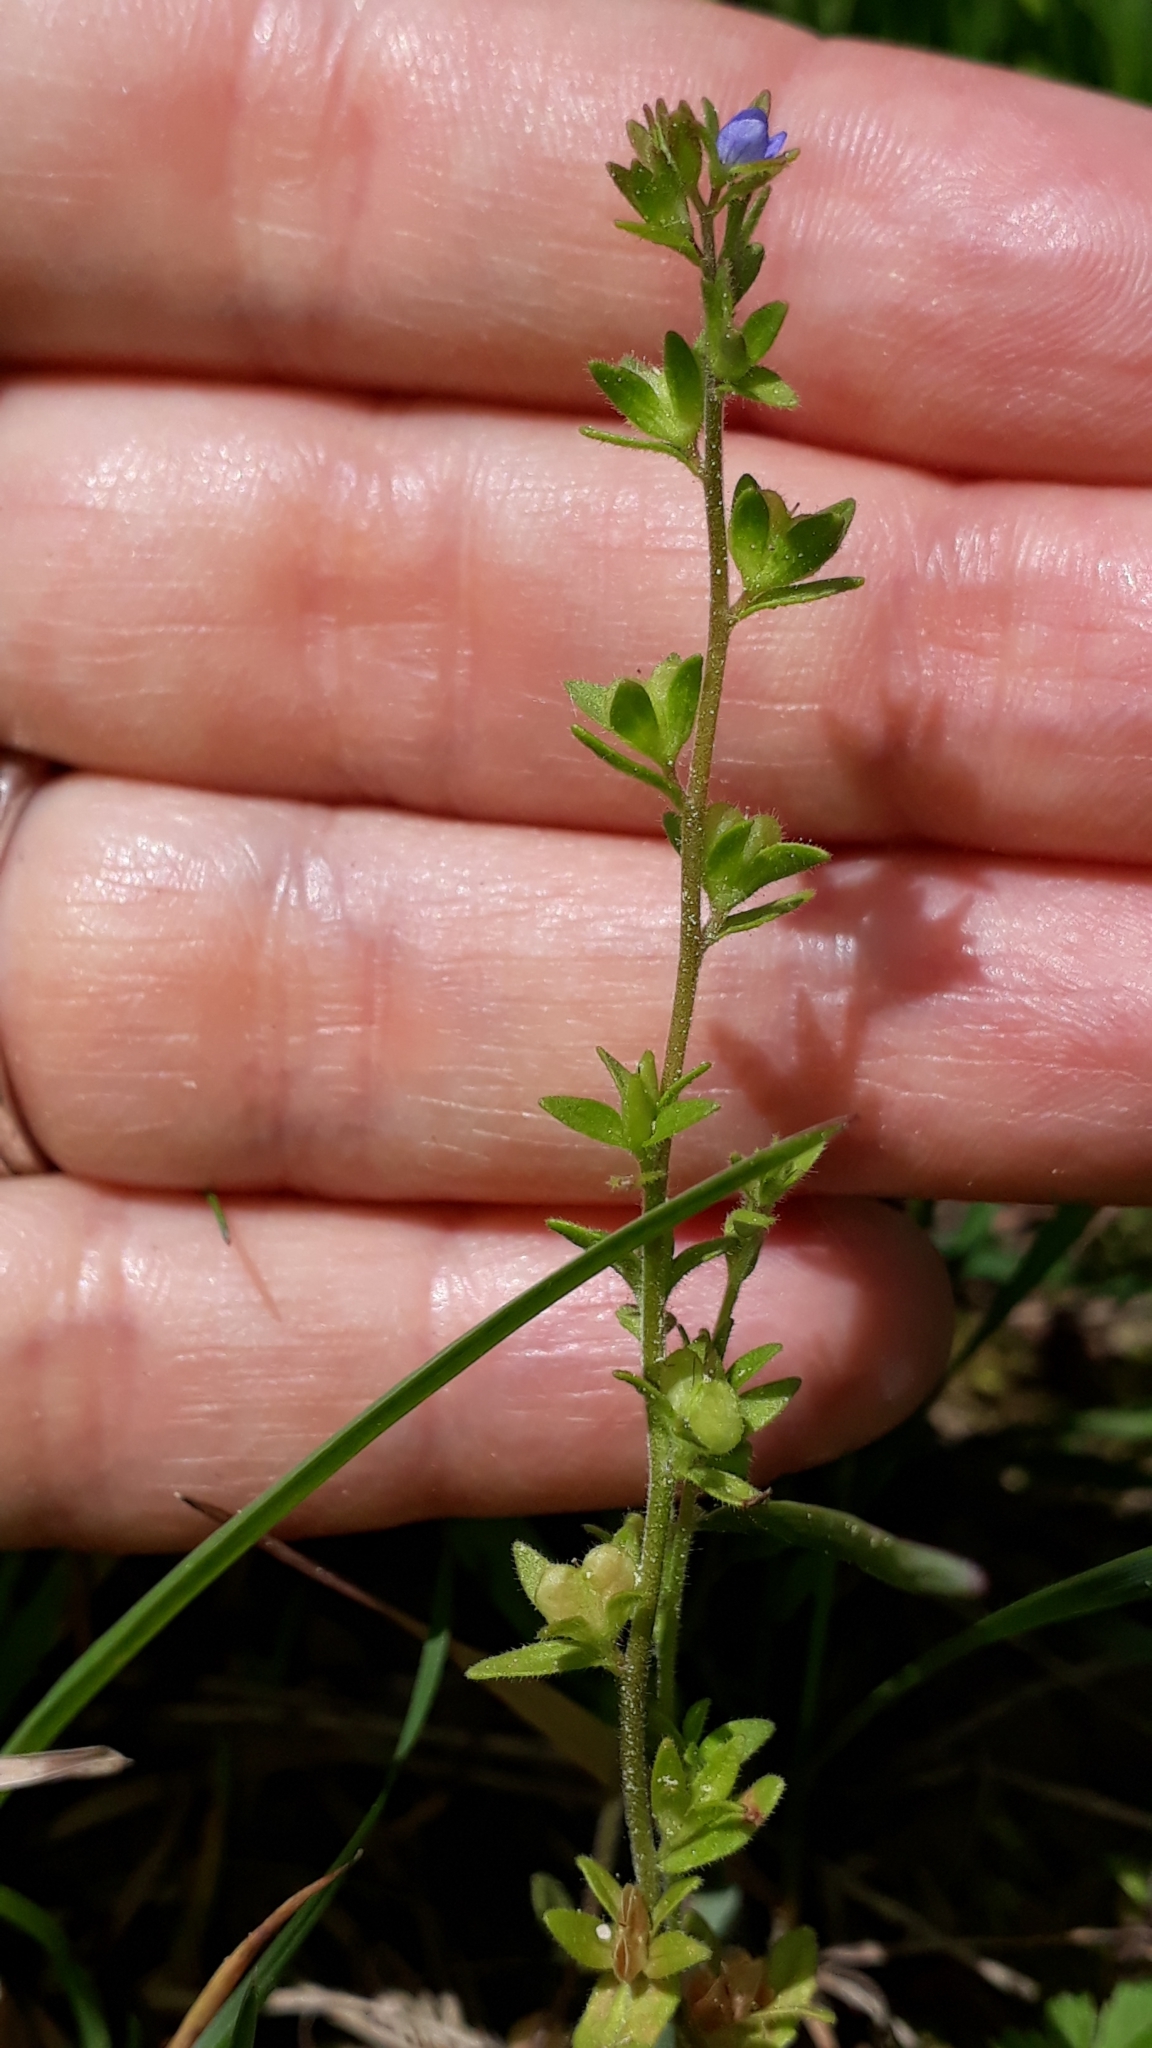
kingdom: Plantae
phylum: Tracheophyta
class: Magnoliopsida
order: Lamiales
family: Plantaginaceae
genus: Veronica
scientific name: Veronica arvensis
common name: Corn speedwell
